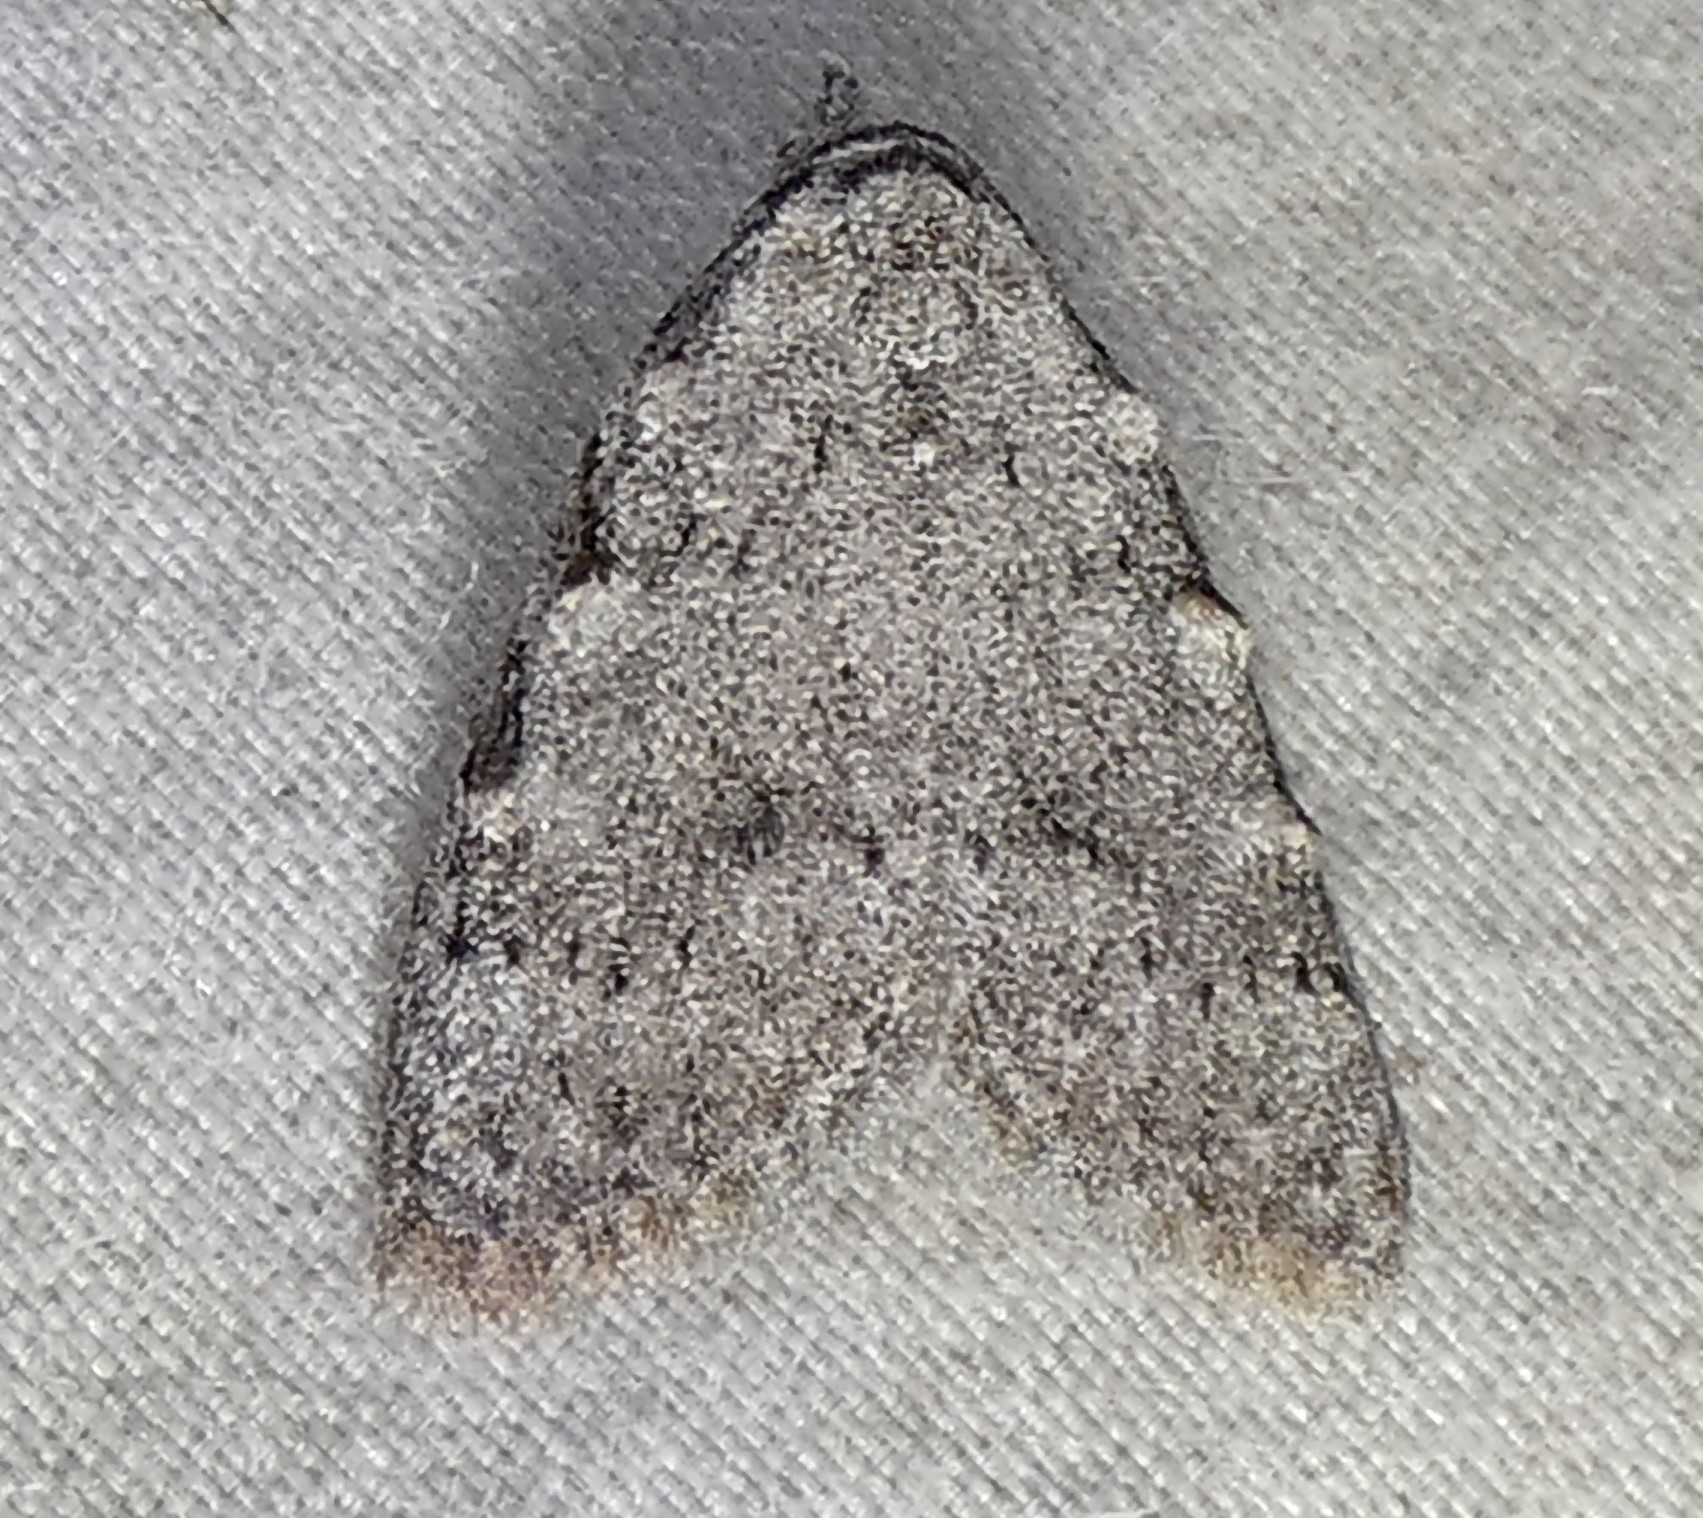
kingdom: Animalia
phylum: Arthropoda
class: Insecta
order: Lepidoptera
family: Nolidae
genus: Nola
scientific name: Nola triquetrana
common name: Three-spotted nola moth
